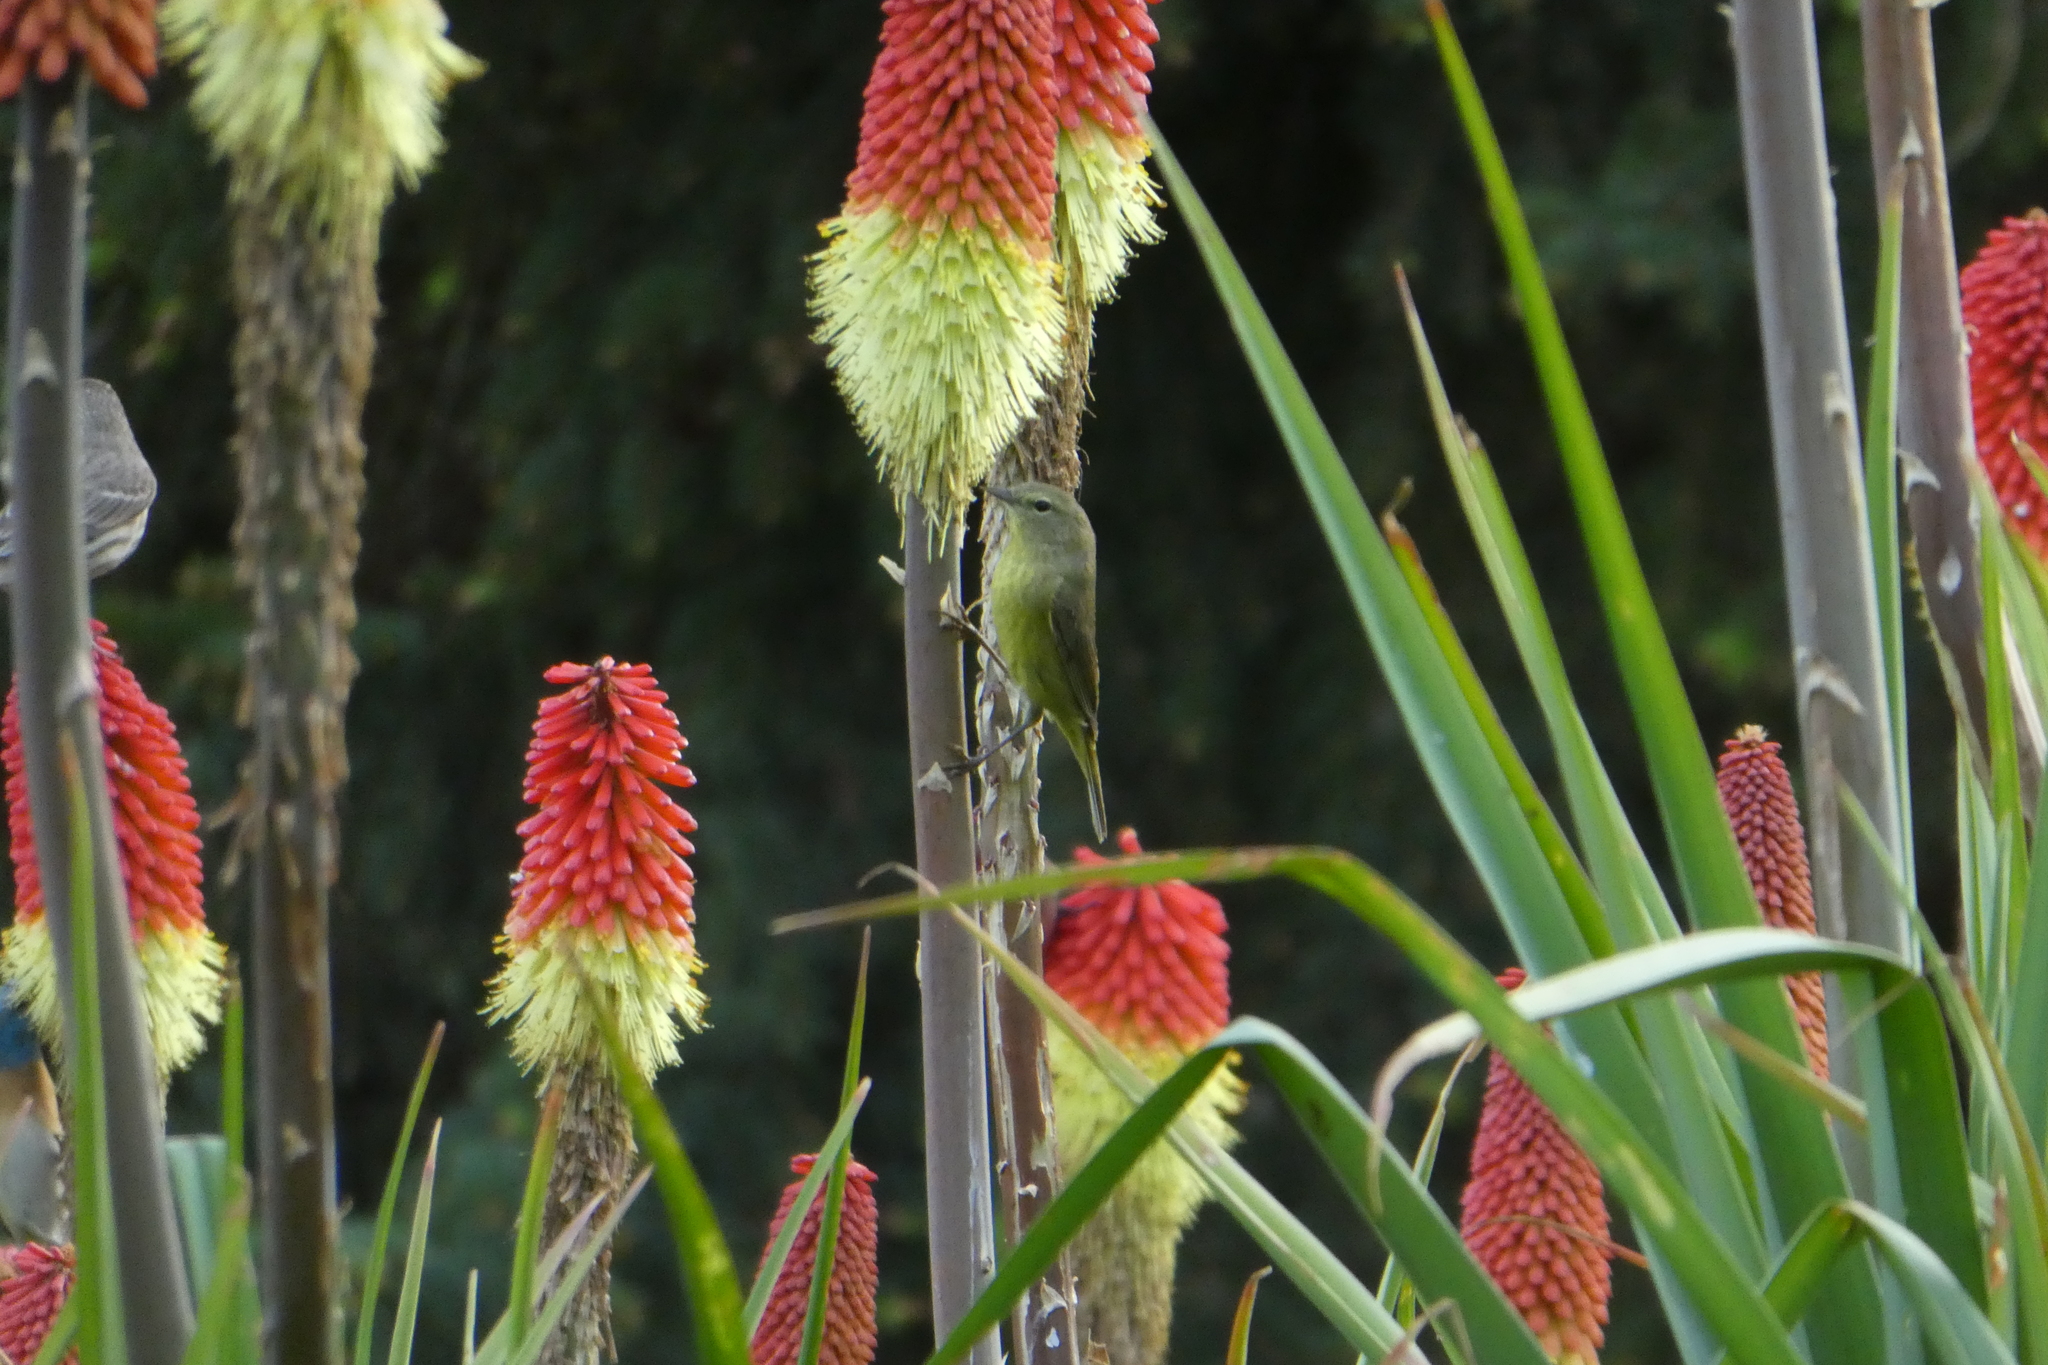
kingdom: Animalia
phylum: Chordata
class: Aves
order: Passeriformes
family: Parulidae
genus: Leiothlypis
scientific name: Leiothlypis celata
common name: Orange-crowned warbler
